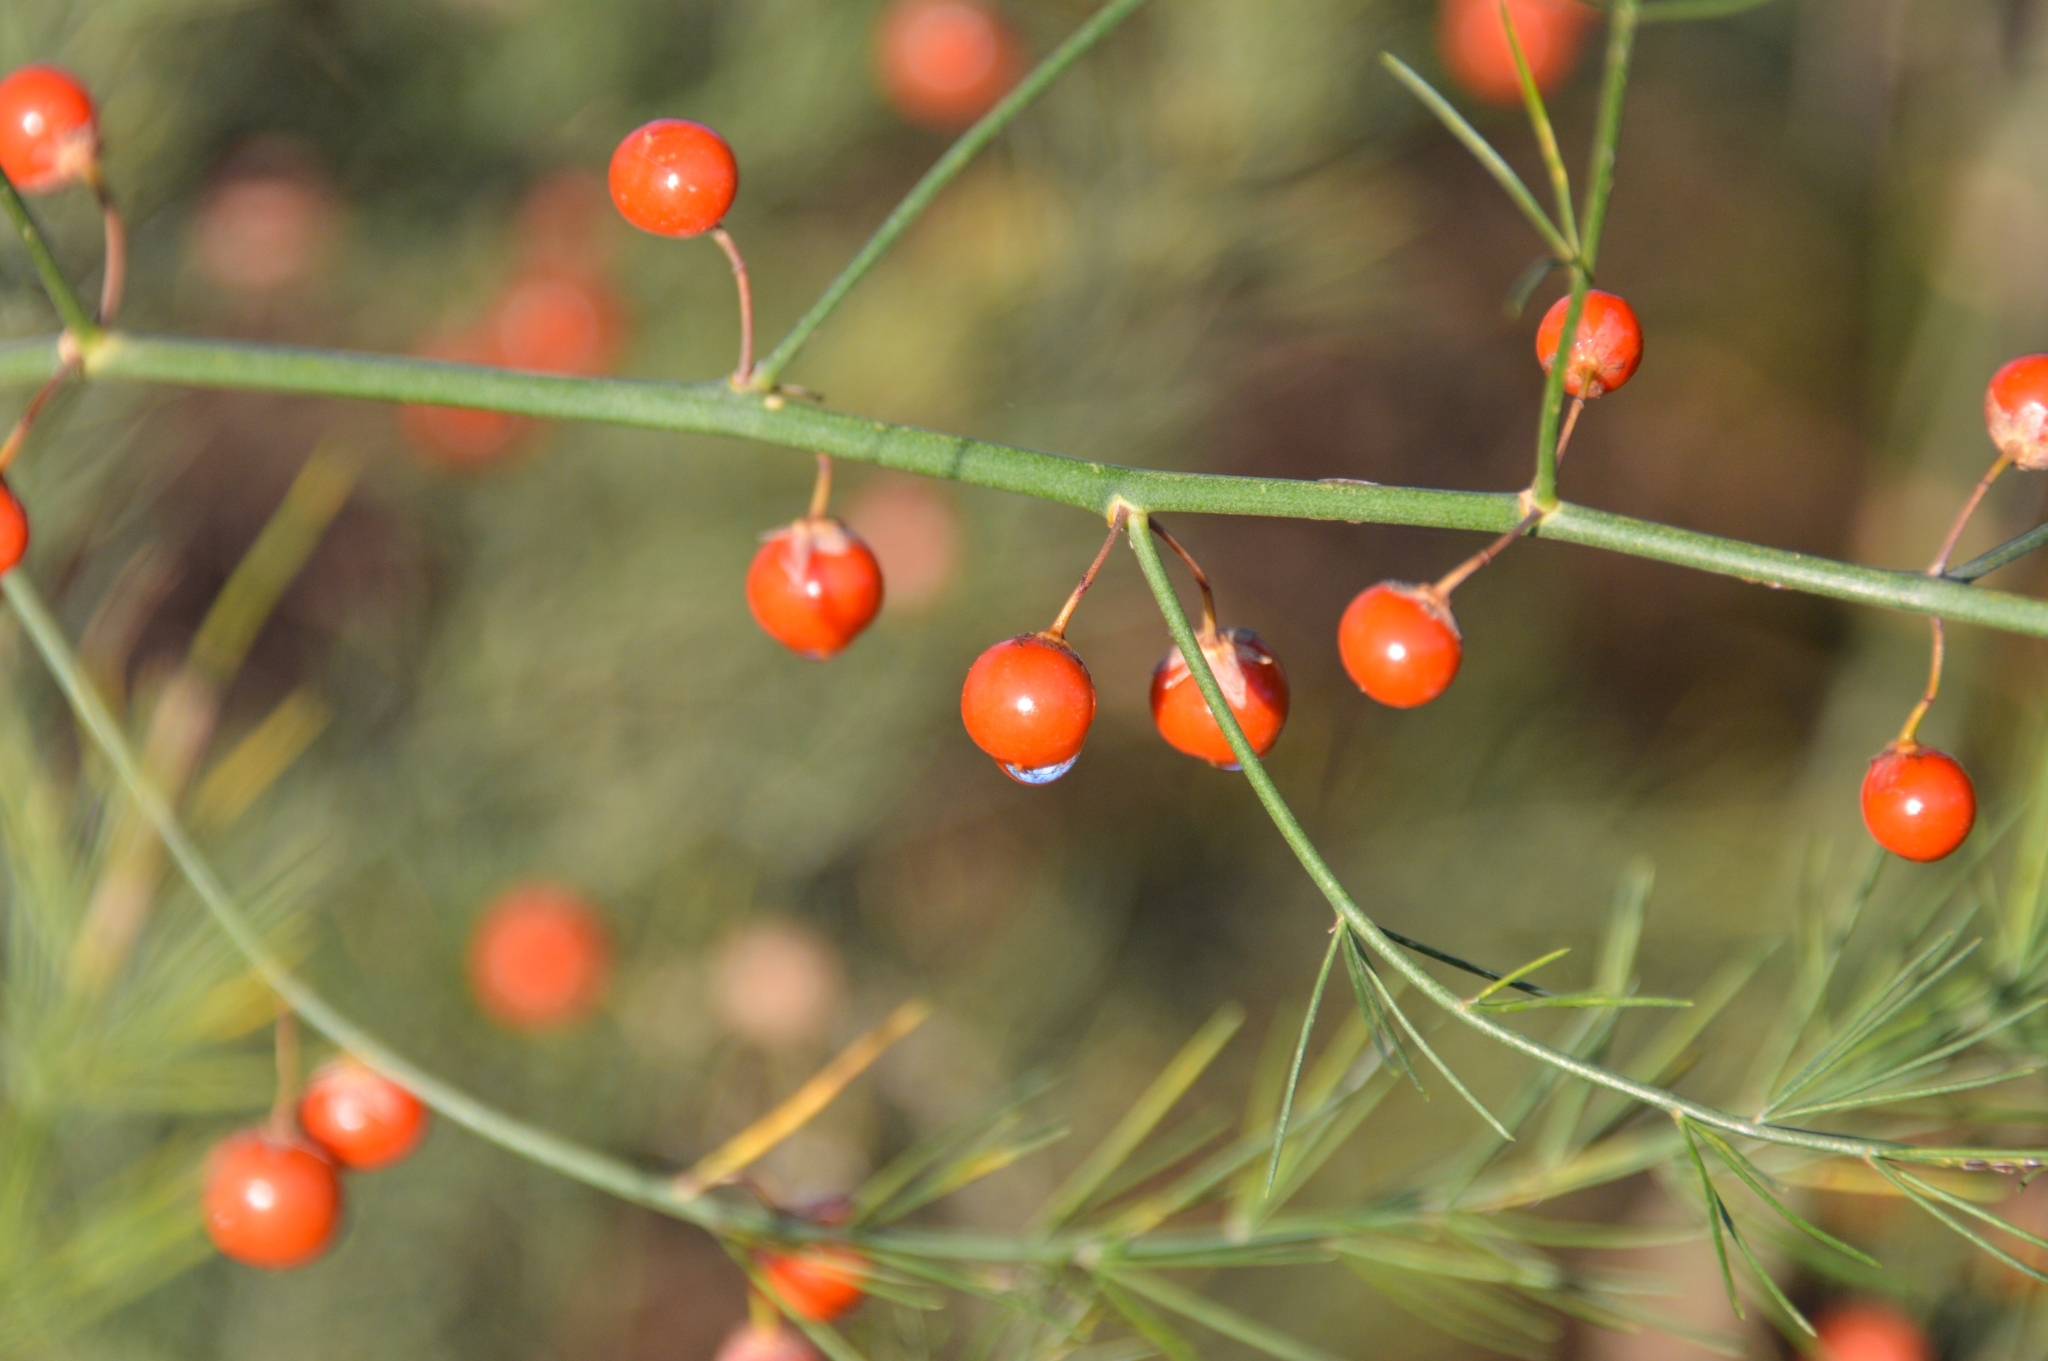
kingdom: Plantae
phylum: Tracheophyta
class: Liliopsida
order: Asparagales
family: Asparagaceae
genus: Asparagus
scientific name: Asparagus officinalis
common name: Garden asparagus
